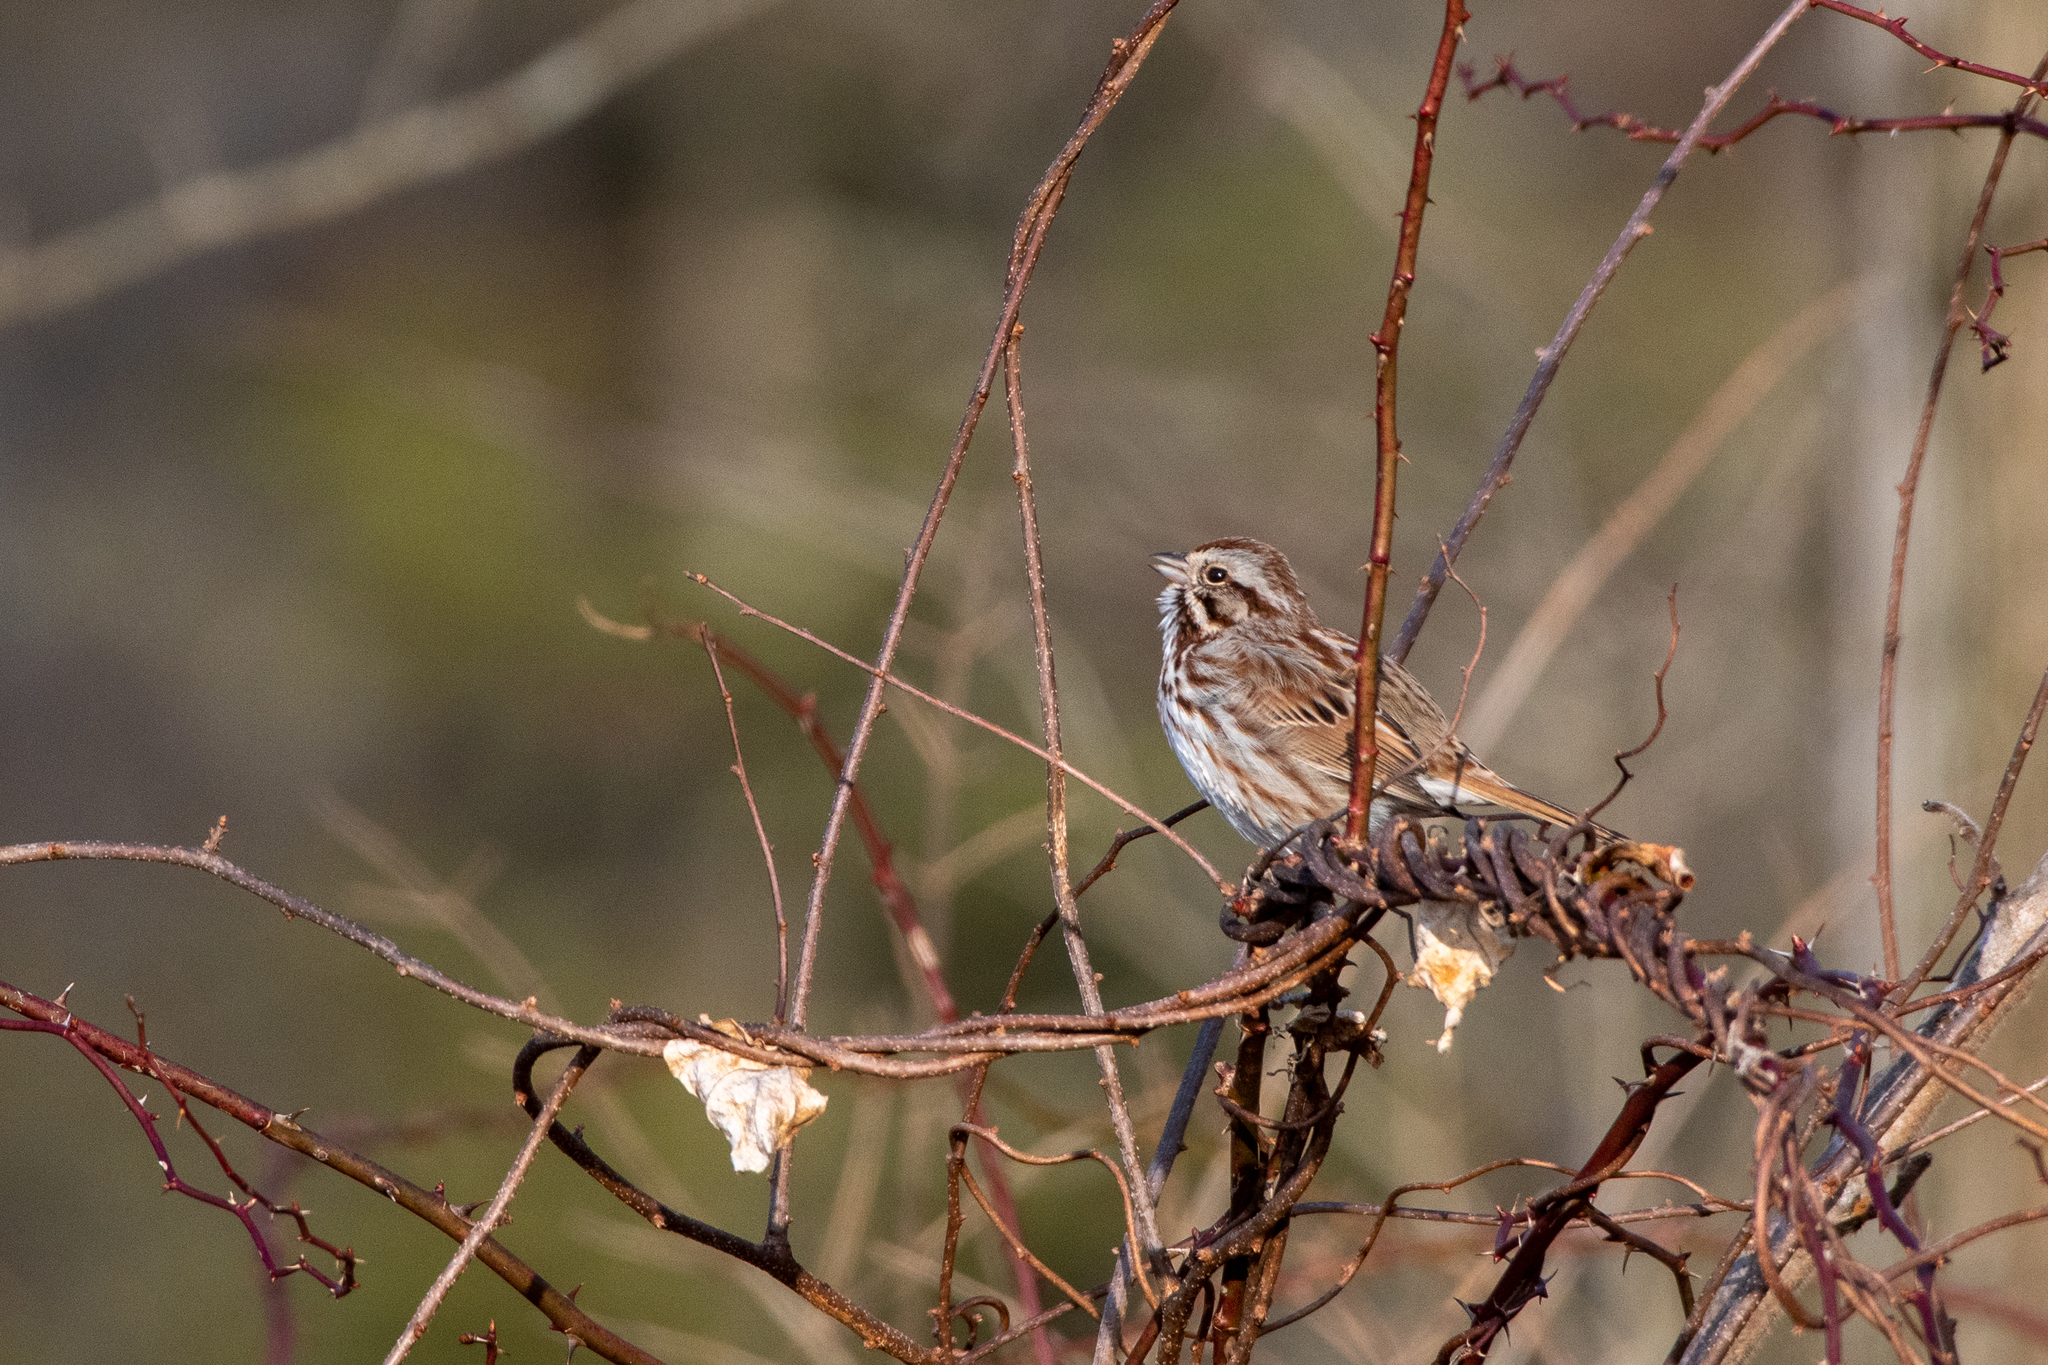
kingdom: Animalia
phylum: Chordata
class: Aves
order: Passeriformes
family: Passerellidae
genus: Melospiza
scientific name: Melospiza melodia
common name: Song sparrow
